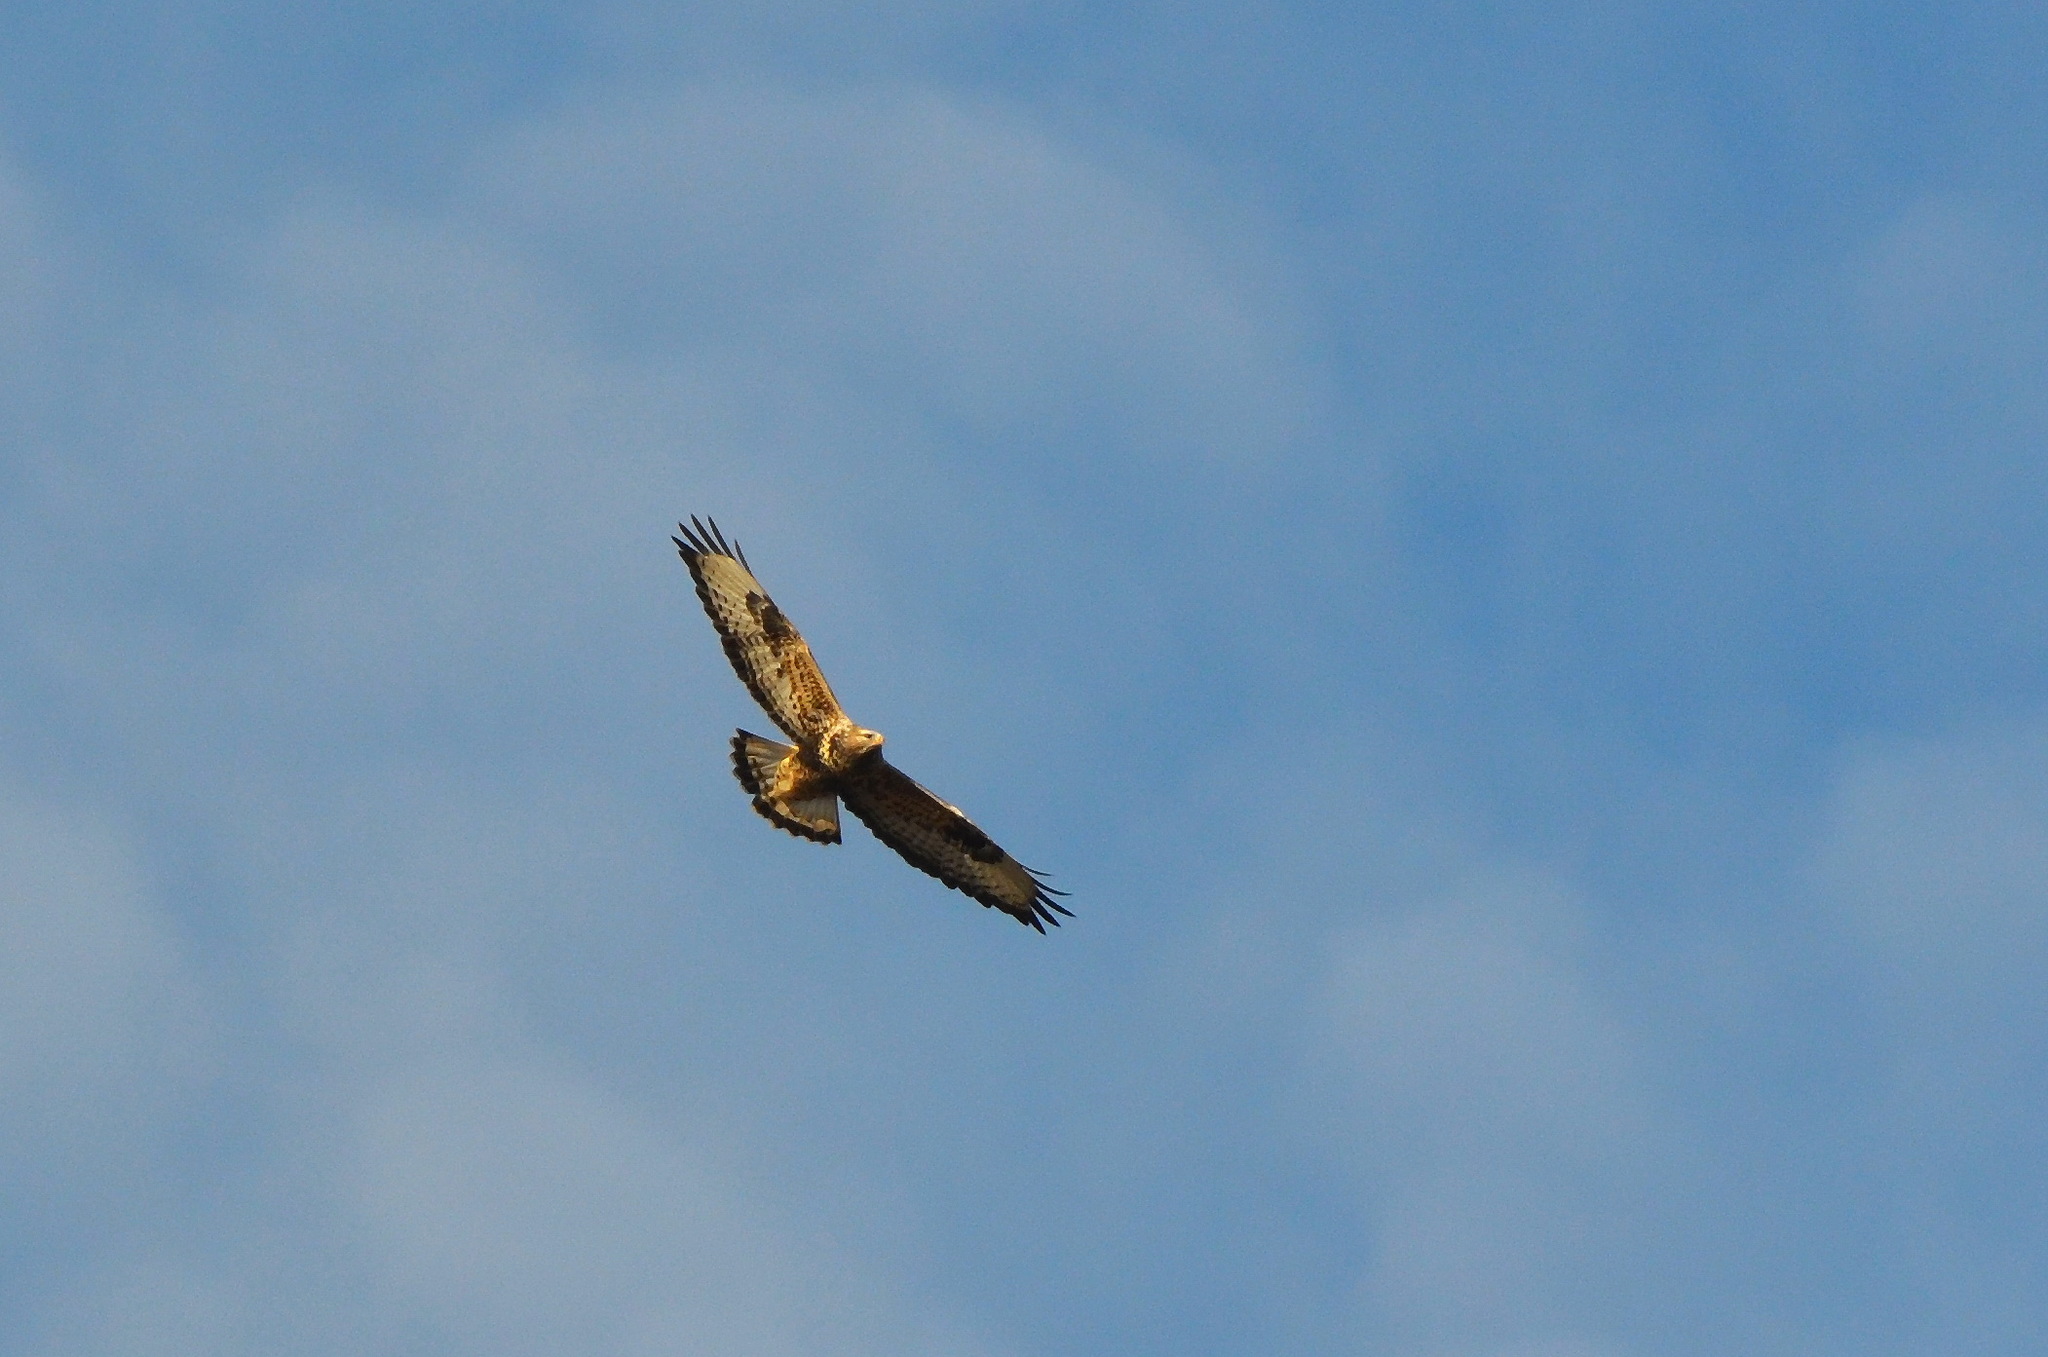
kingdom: Animalia
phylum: Chordata
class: Aves
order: Accipitriformes
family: Accipitridae
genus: Buteo
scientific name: Buteo lagopus
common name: Rough-legged buzzard
